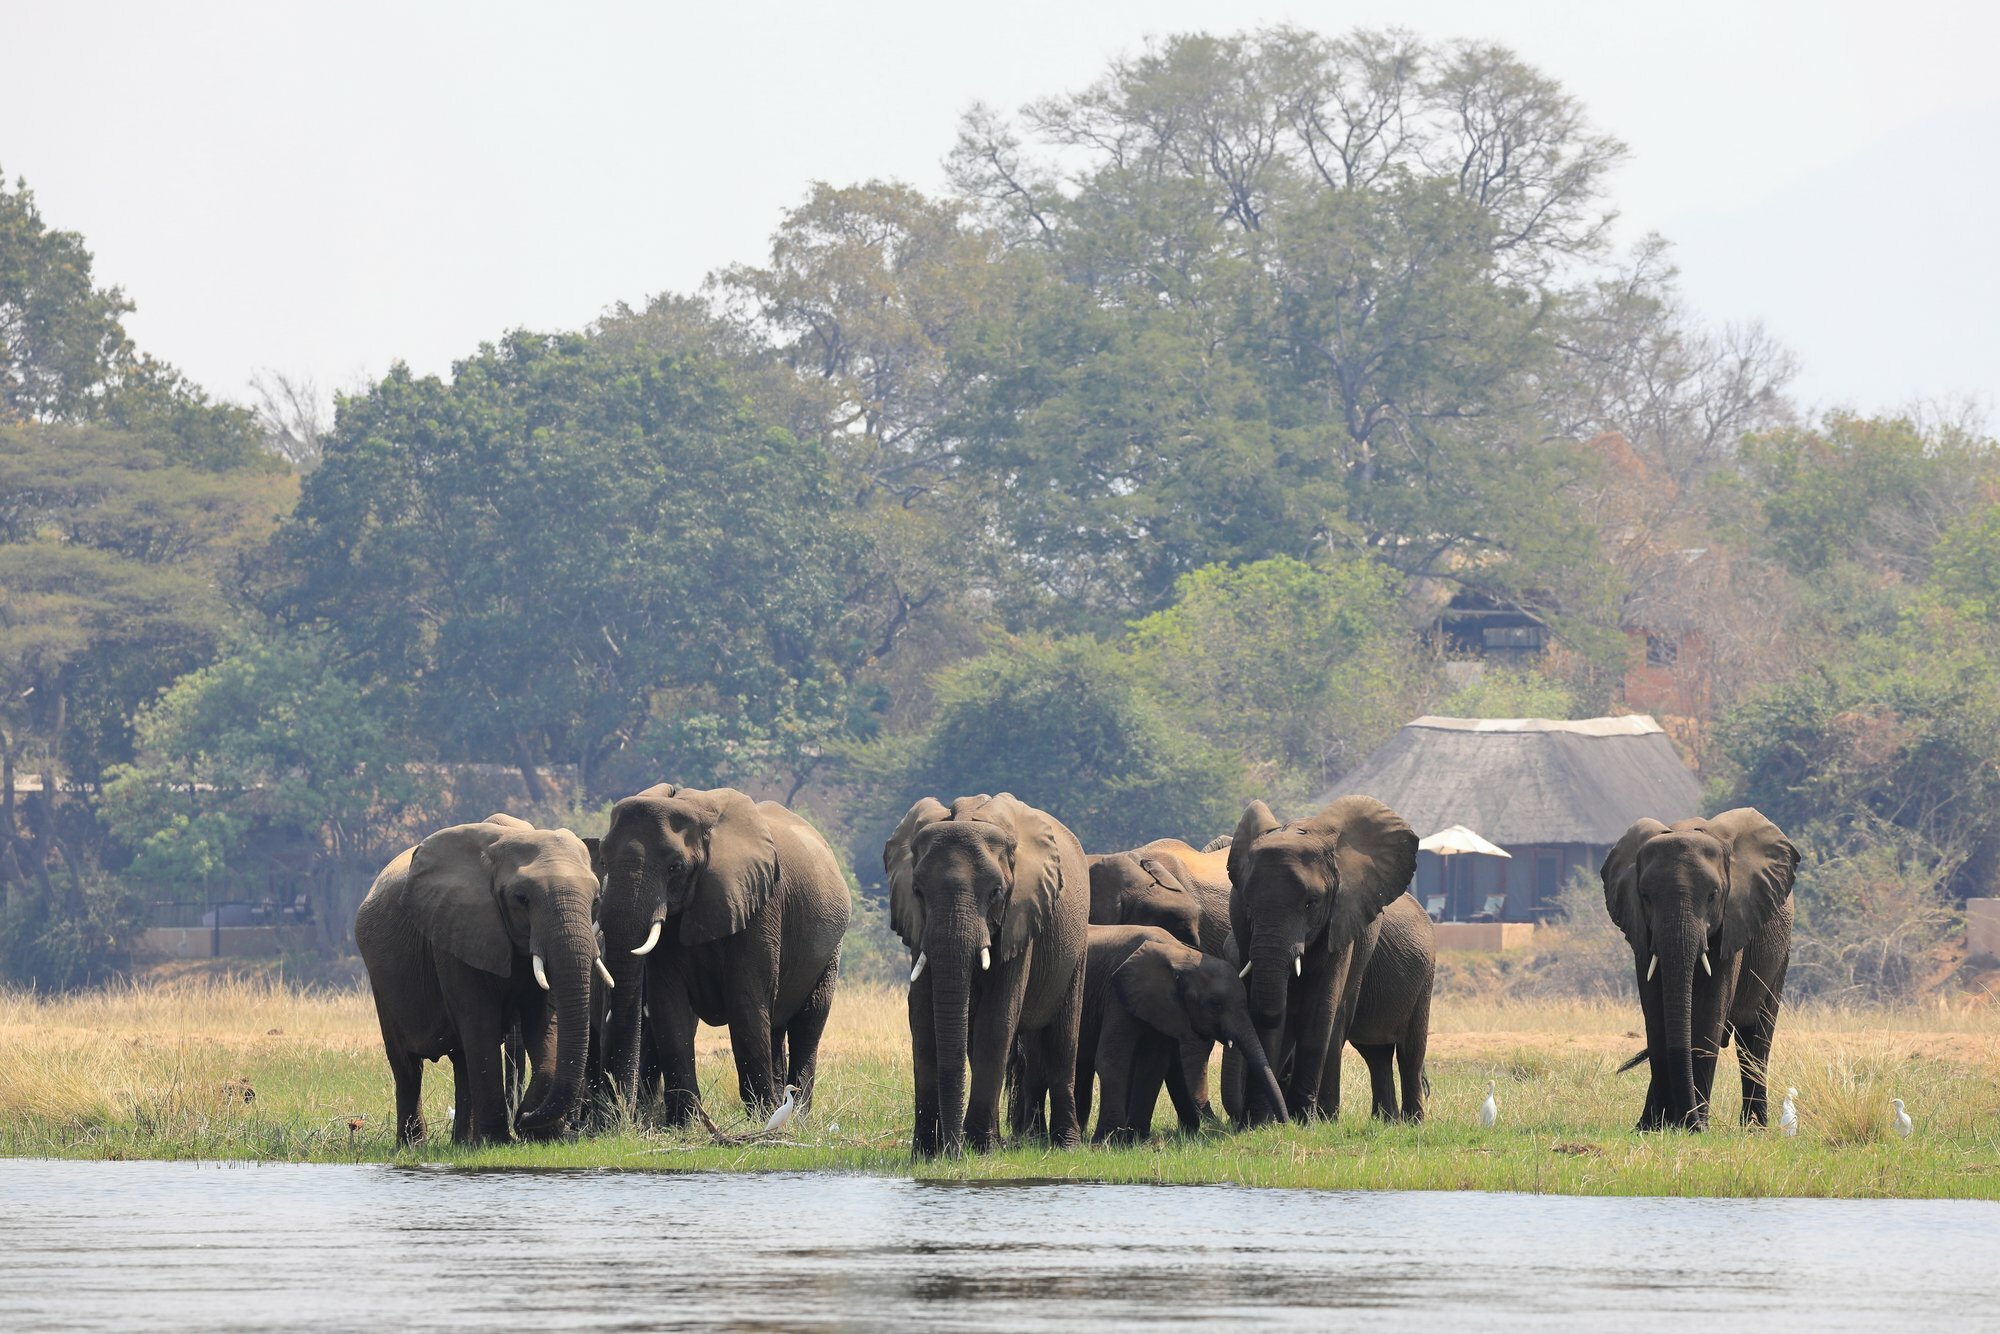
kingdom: Animalia
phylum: Chordata
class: Mammalia
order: Proboscidea
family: Elephantidae
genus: Loxodonta
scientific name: Loxodonta africana
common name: African elephant
